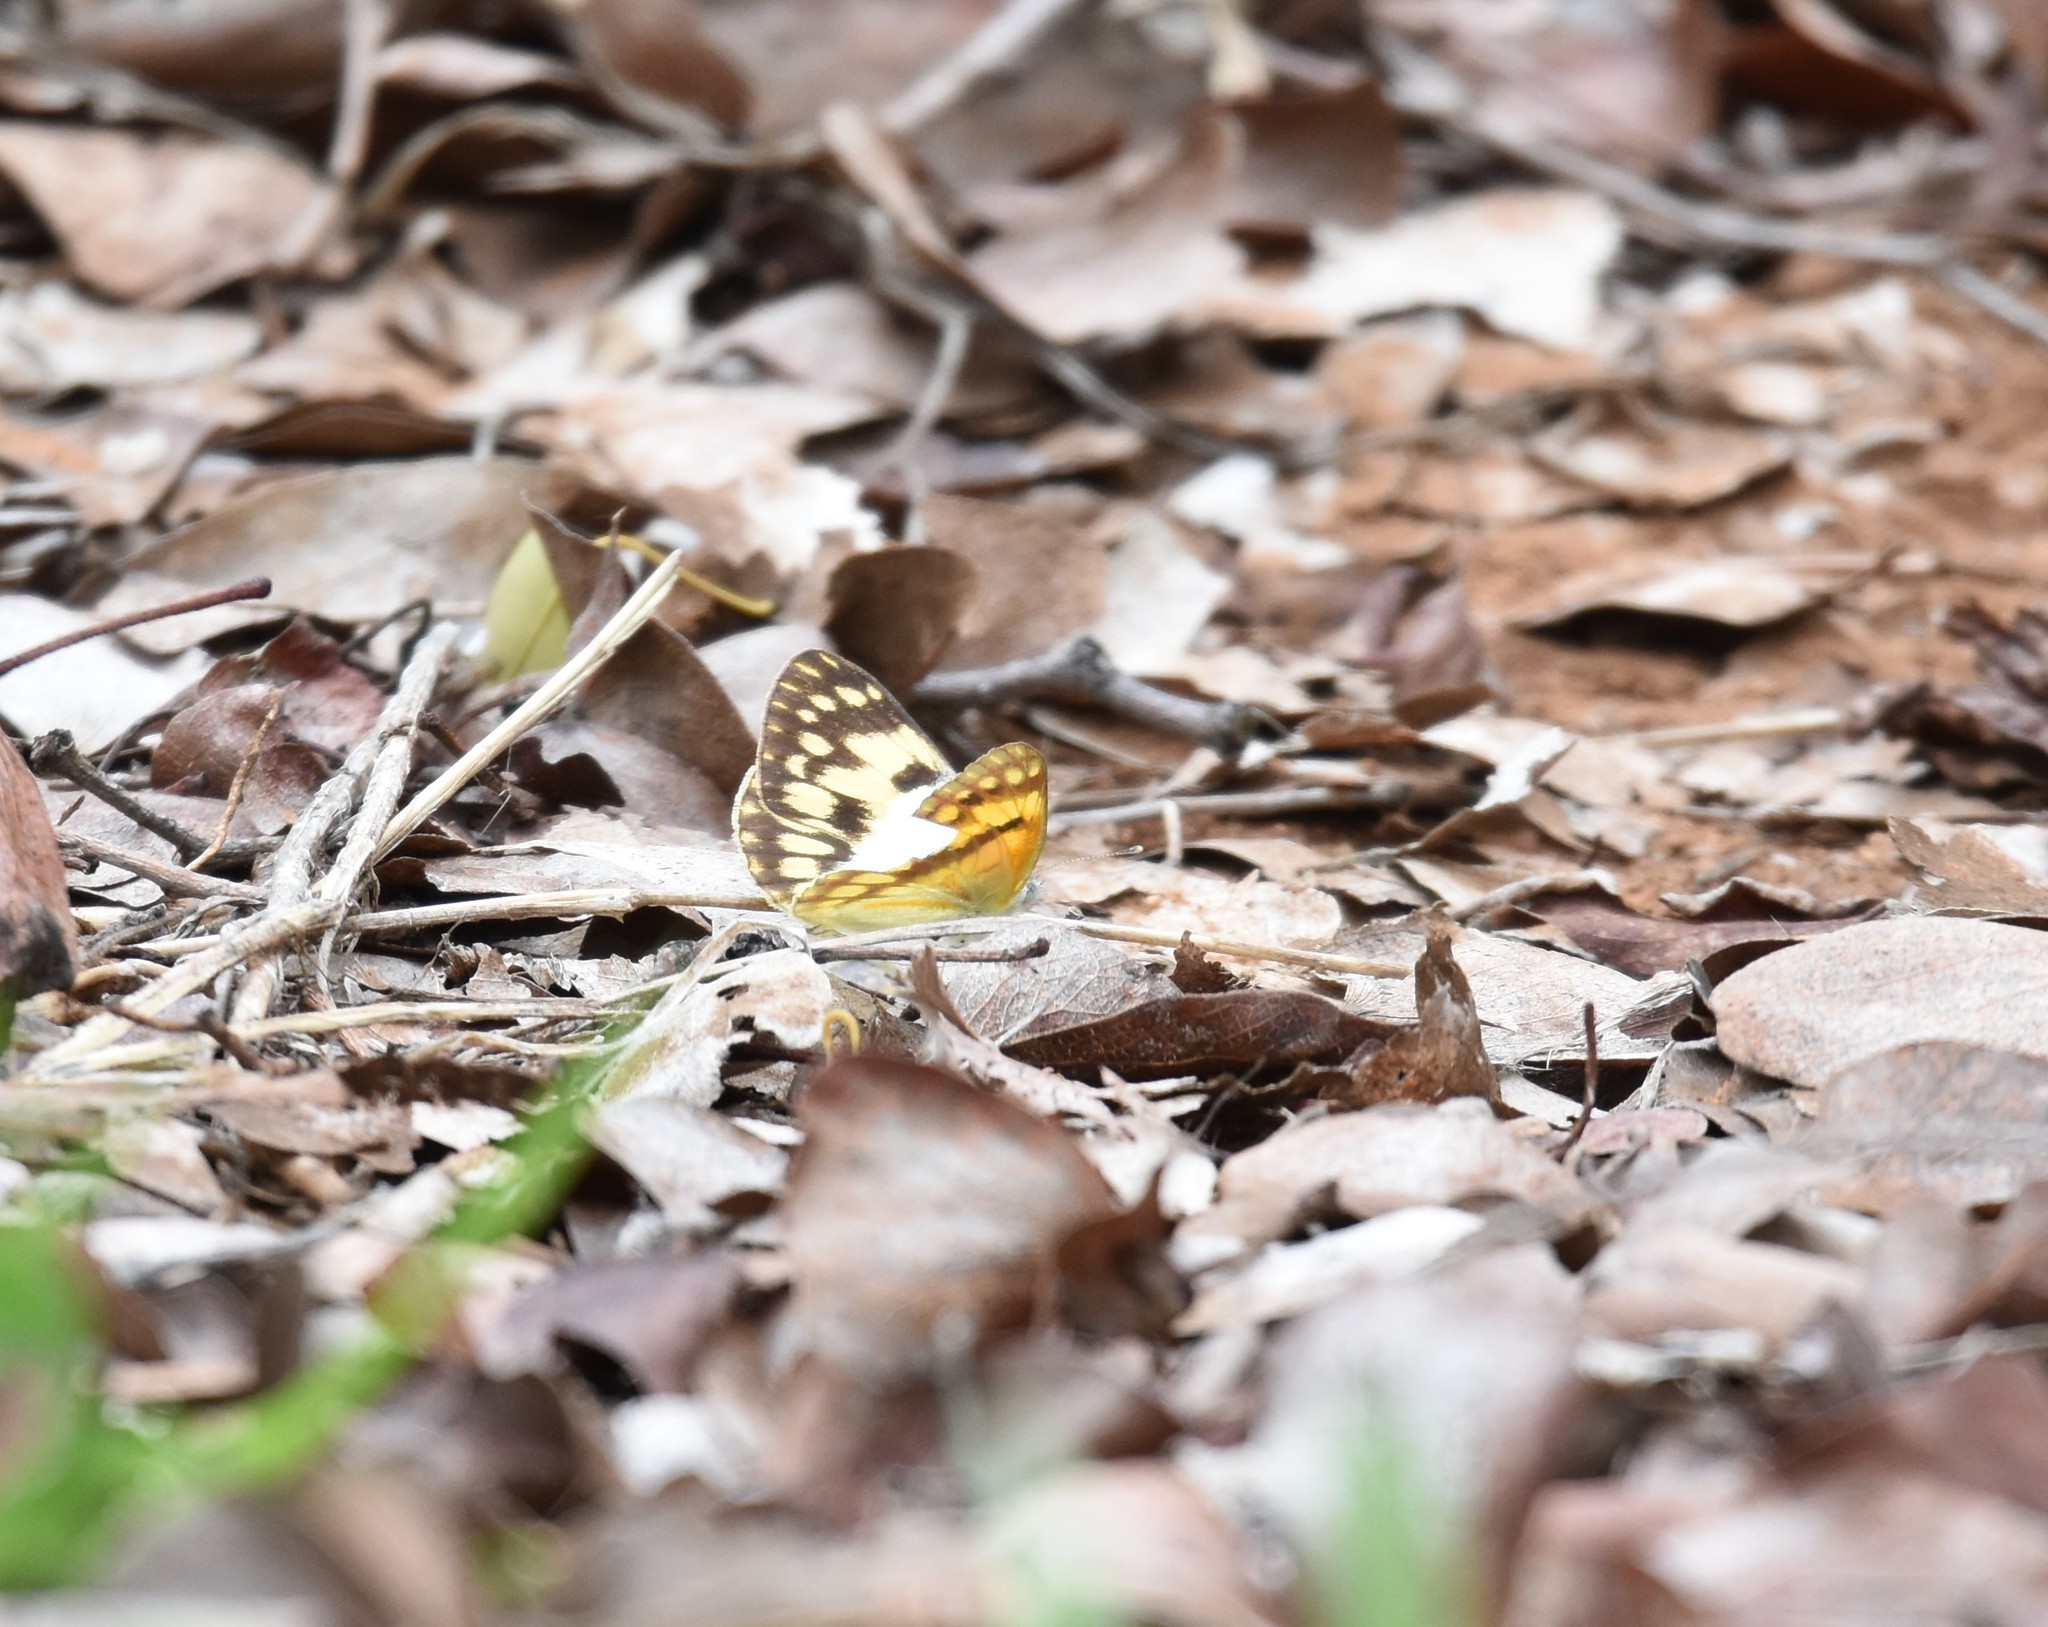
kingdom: Animalia
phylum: Arthropoda
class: Insecta
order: Lepidoptera
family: Pieridae
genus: Colotis
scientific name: Colotis vesta
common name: Veined golden arab
